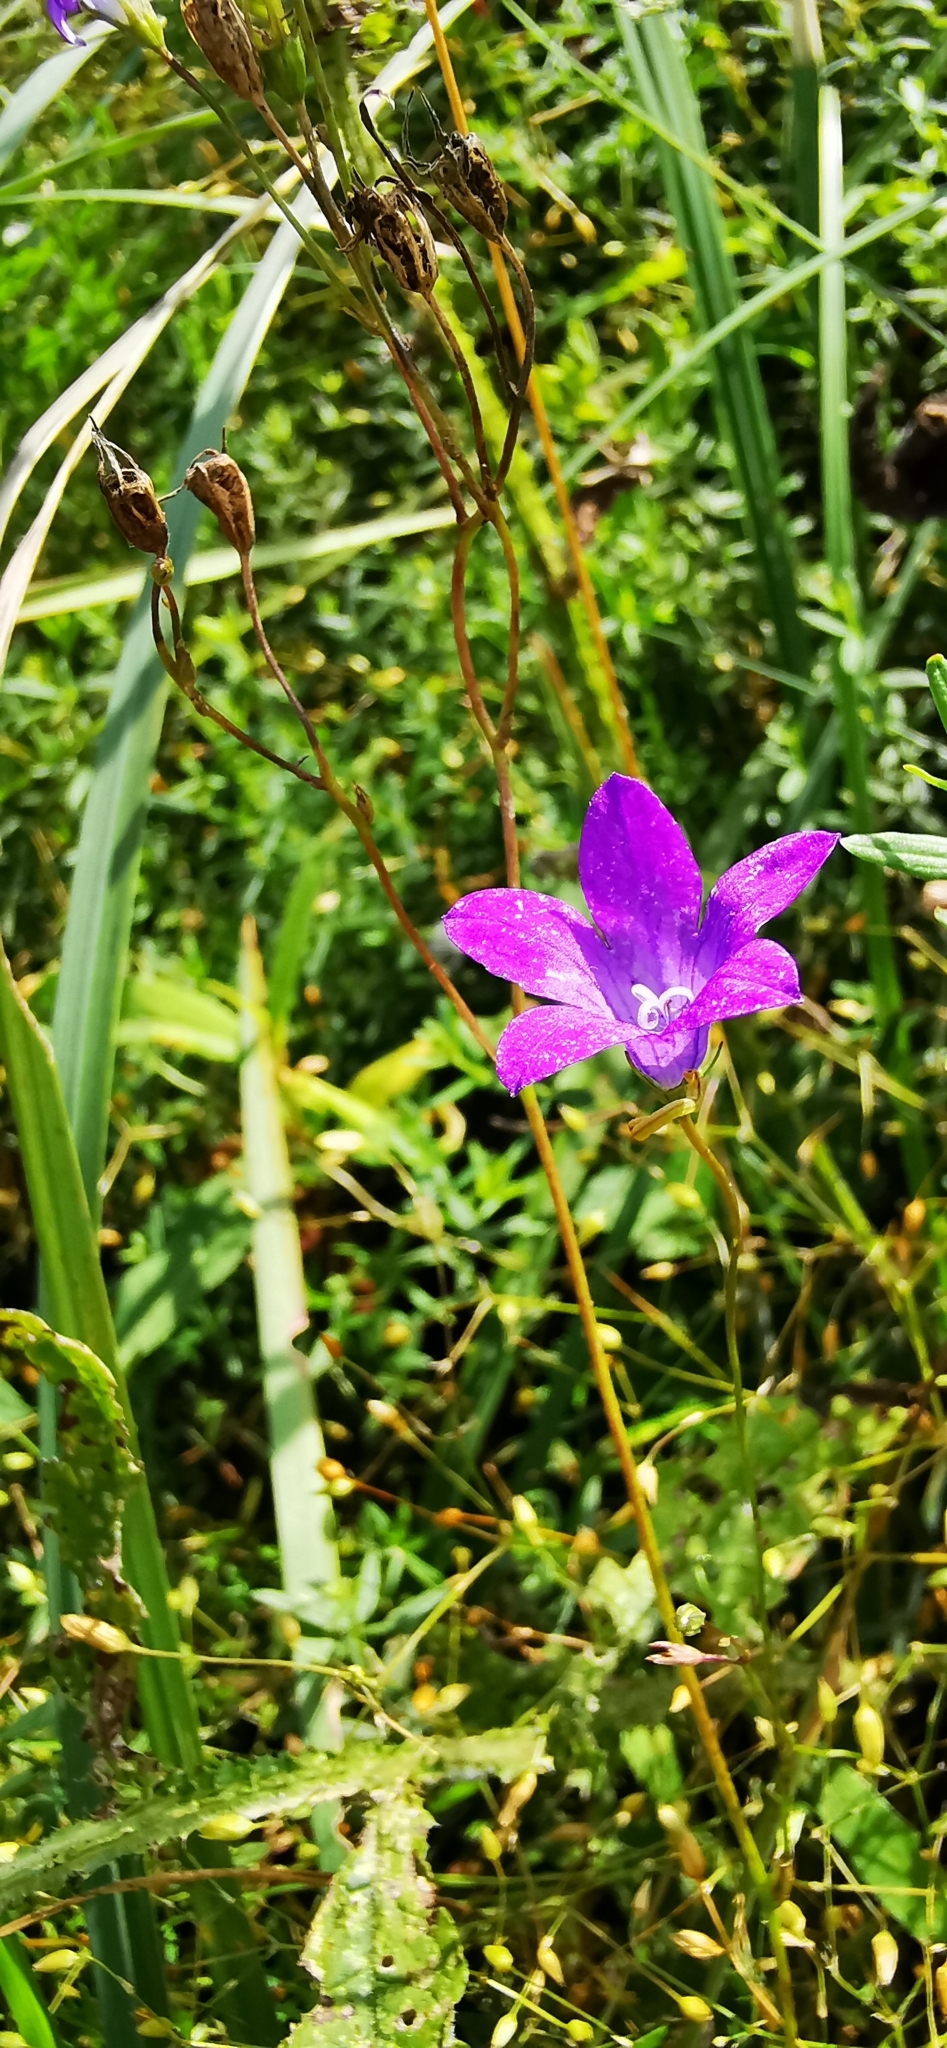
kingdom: Plantae
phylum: Tracheophyta
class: Magnoliopsida
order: Asterales
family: Campanulaceae
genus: Campanula
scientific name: Campanula patula
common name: Spreading bellflower
